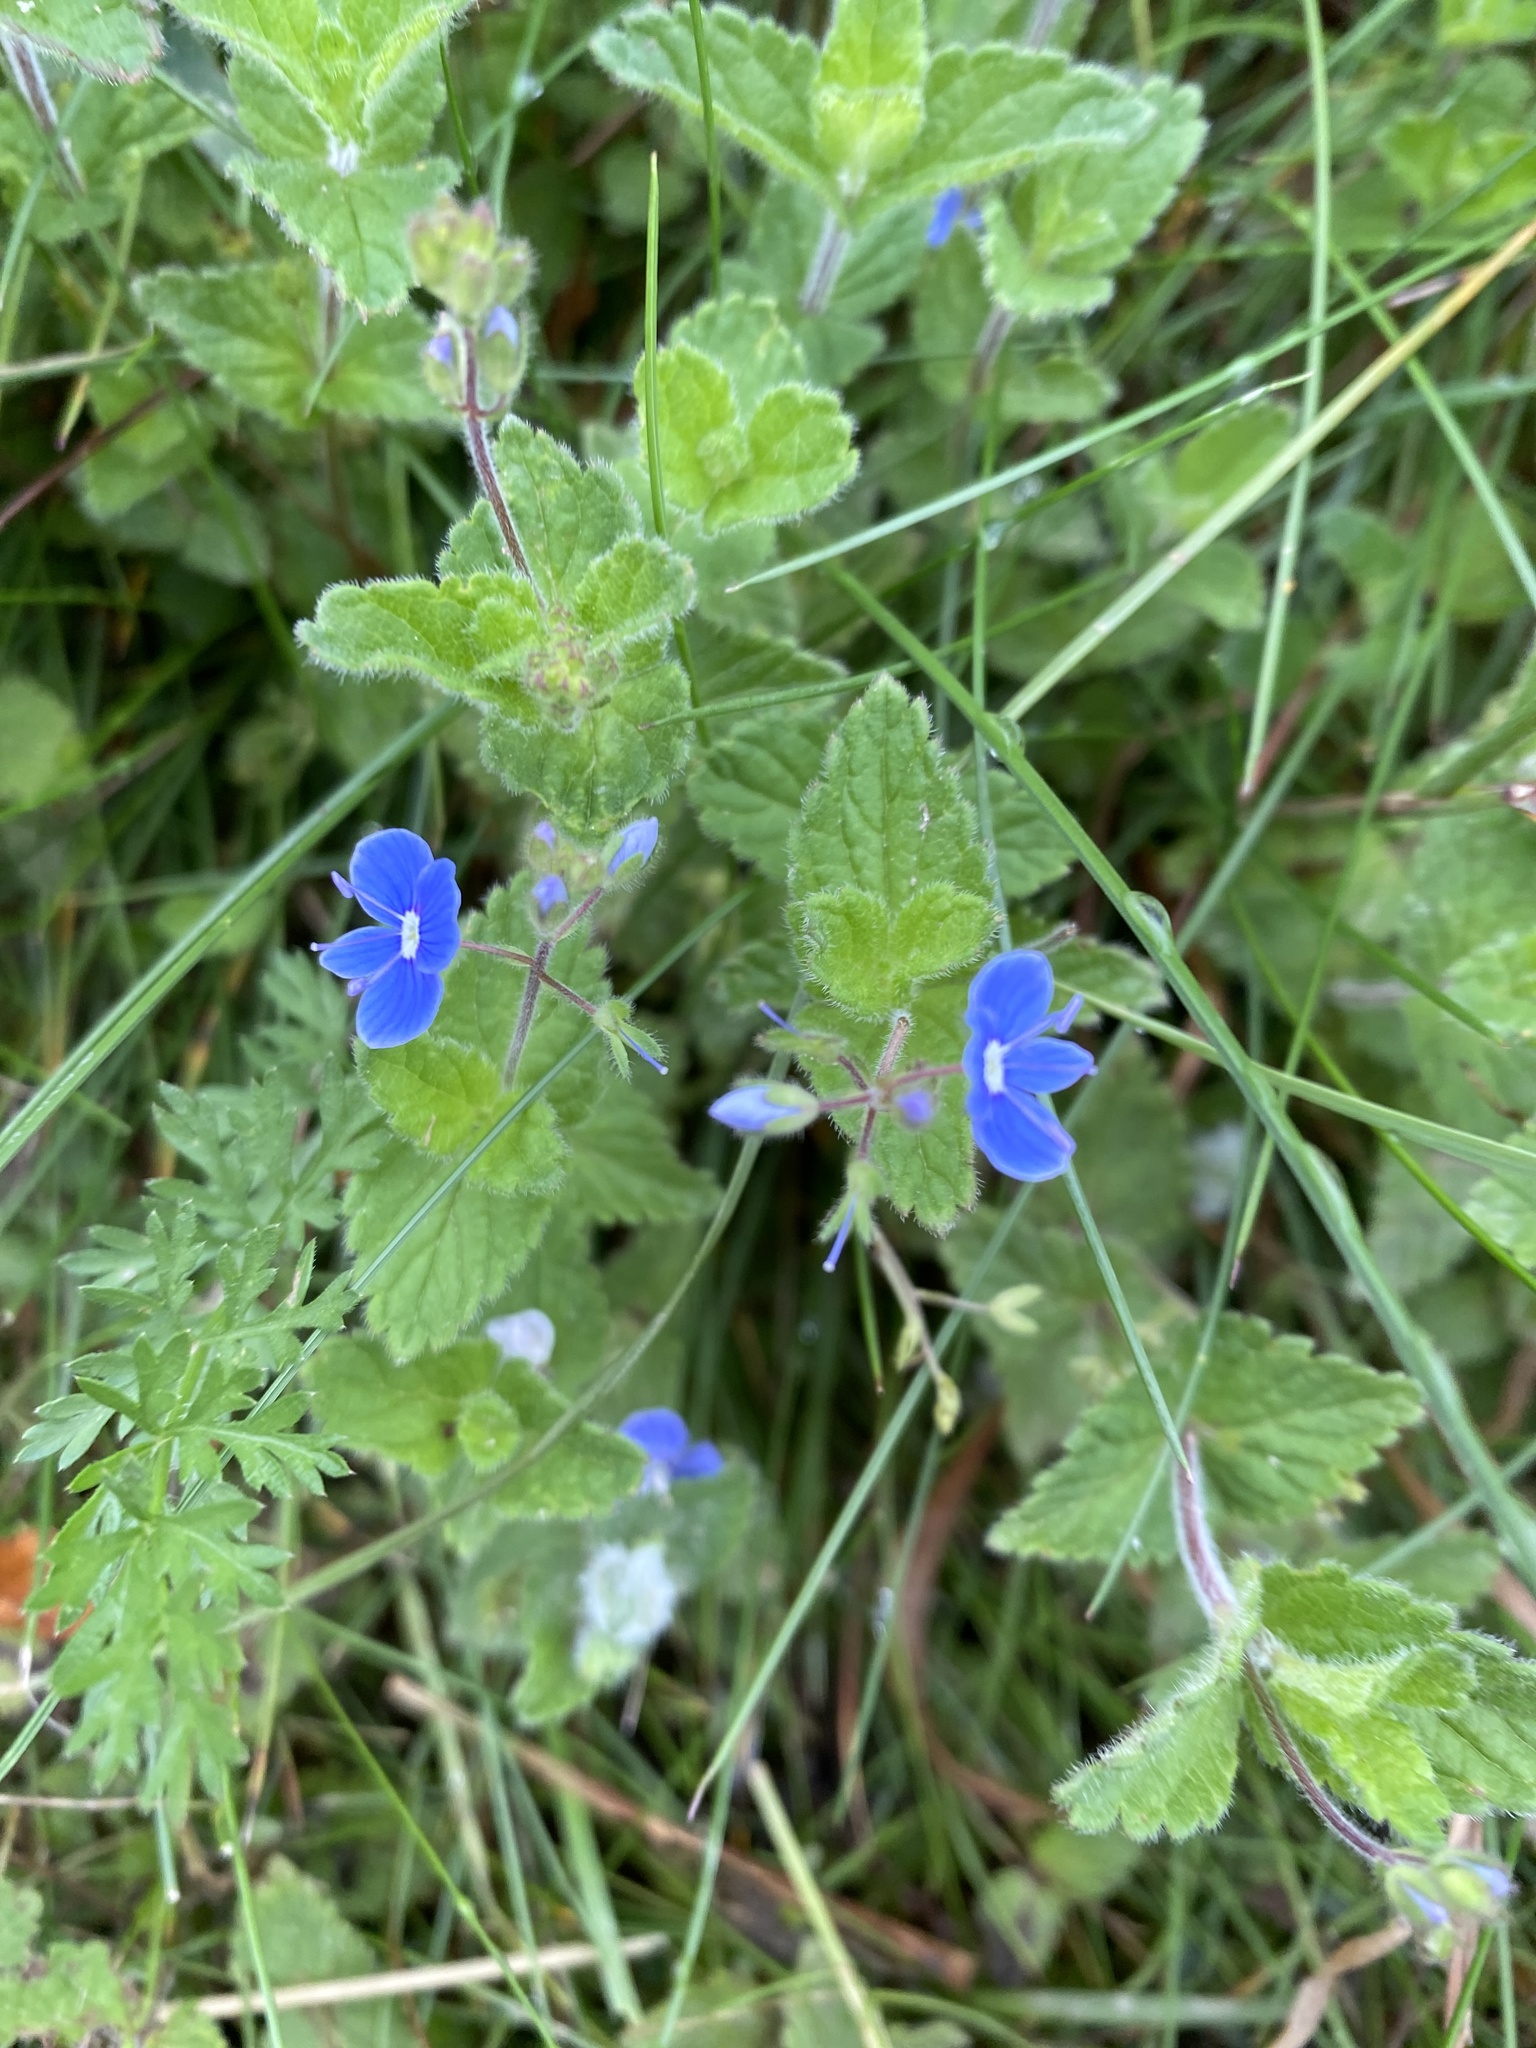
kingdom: Plantae
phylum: Tracheophyta
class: Magnoliopsida
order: Lamiales
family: Plantaginaceae
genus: Veronica
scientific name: Veronica chamaedrys
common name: Germander speedwell
